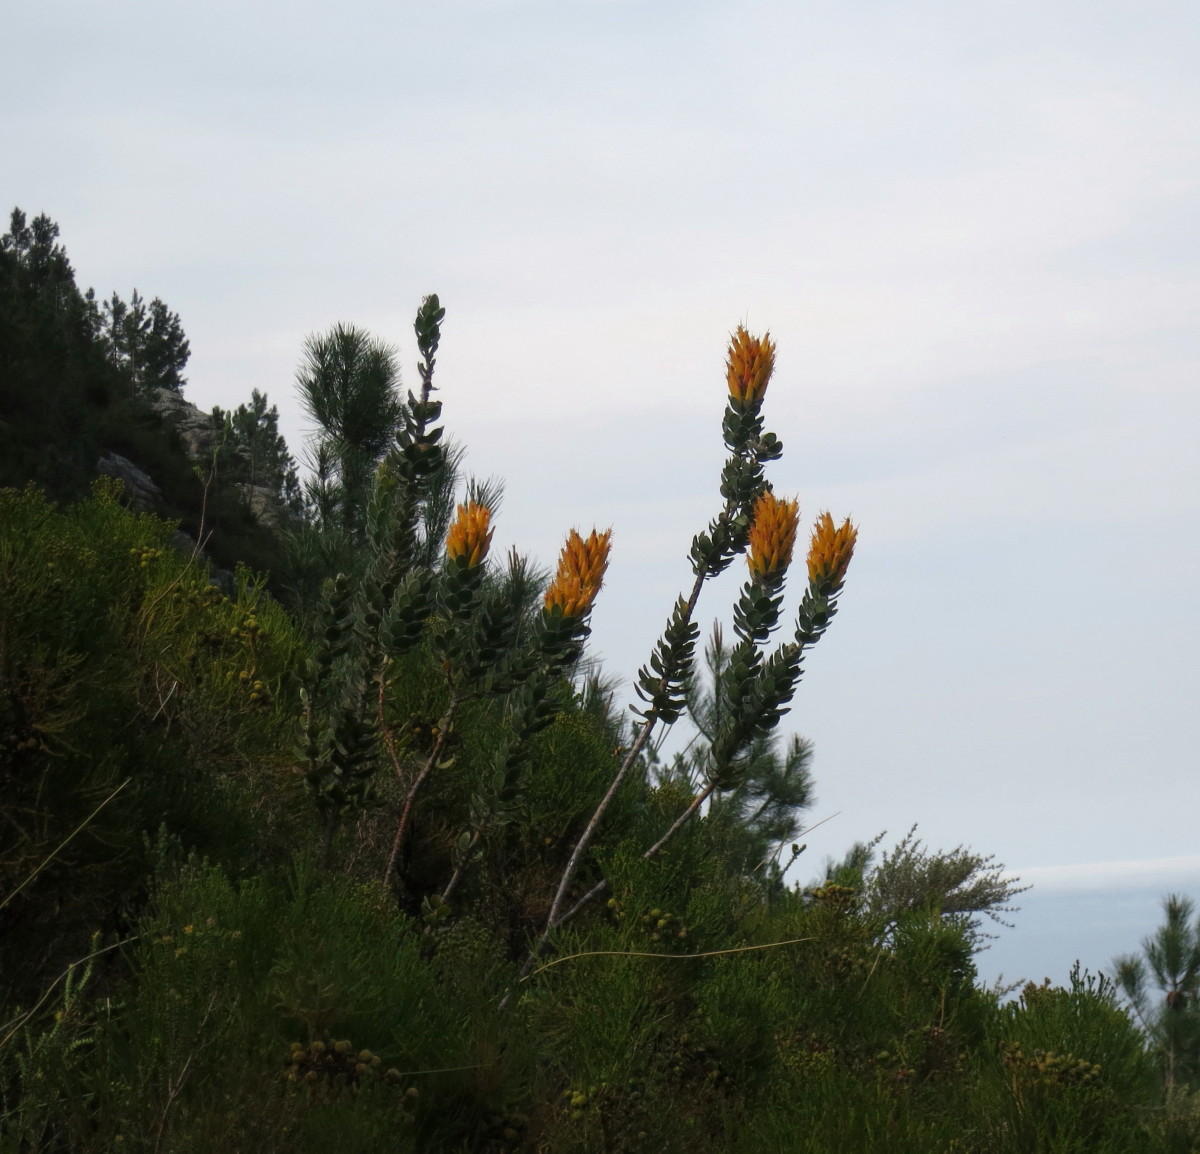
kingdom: Plantae
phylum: Tracheophyta
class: Magnoliopsida
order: Proteales
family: Proteaceae
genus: Mimetes
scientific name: Mimetes pauciflora
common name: Three-flowered pagoda
